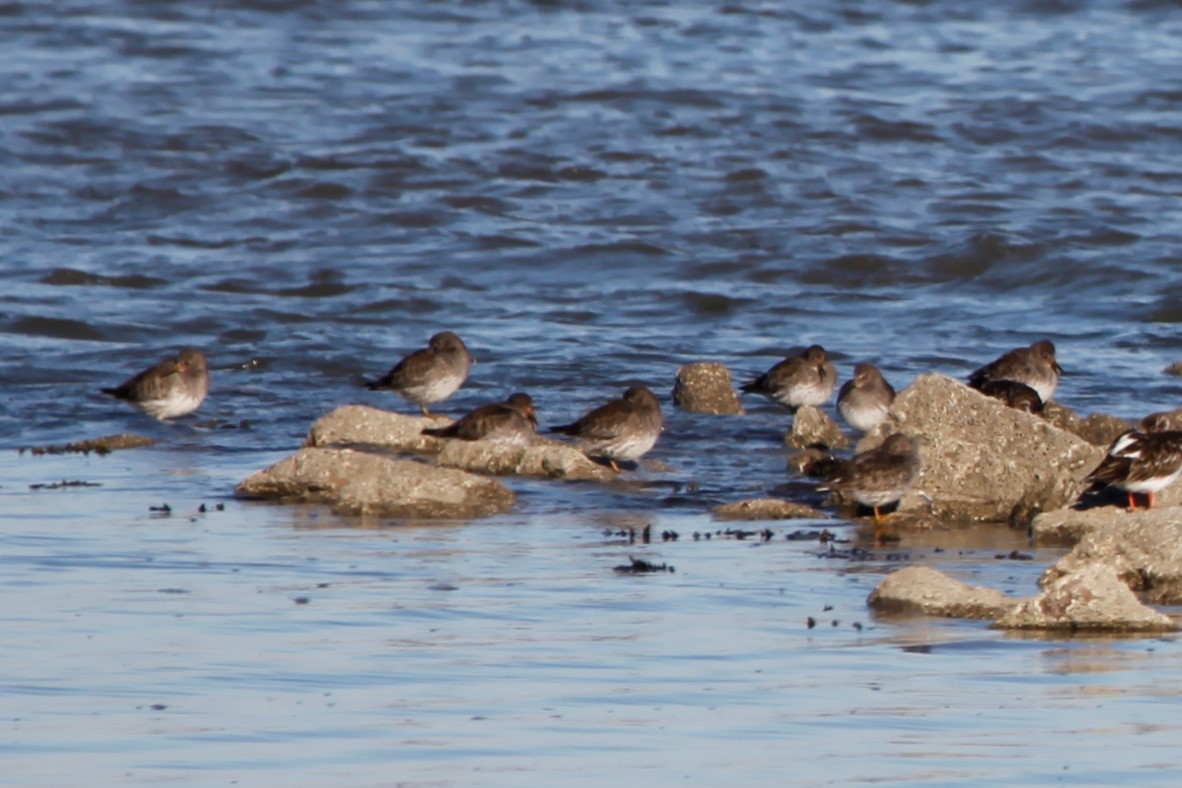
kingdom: Animalia
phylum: Chordata
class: Aves
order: Charadriiformes
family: Scolopacidae
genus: Calidris
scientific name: Calidris maritima
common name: Purple sandpiper
